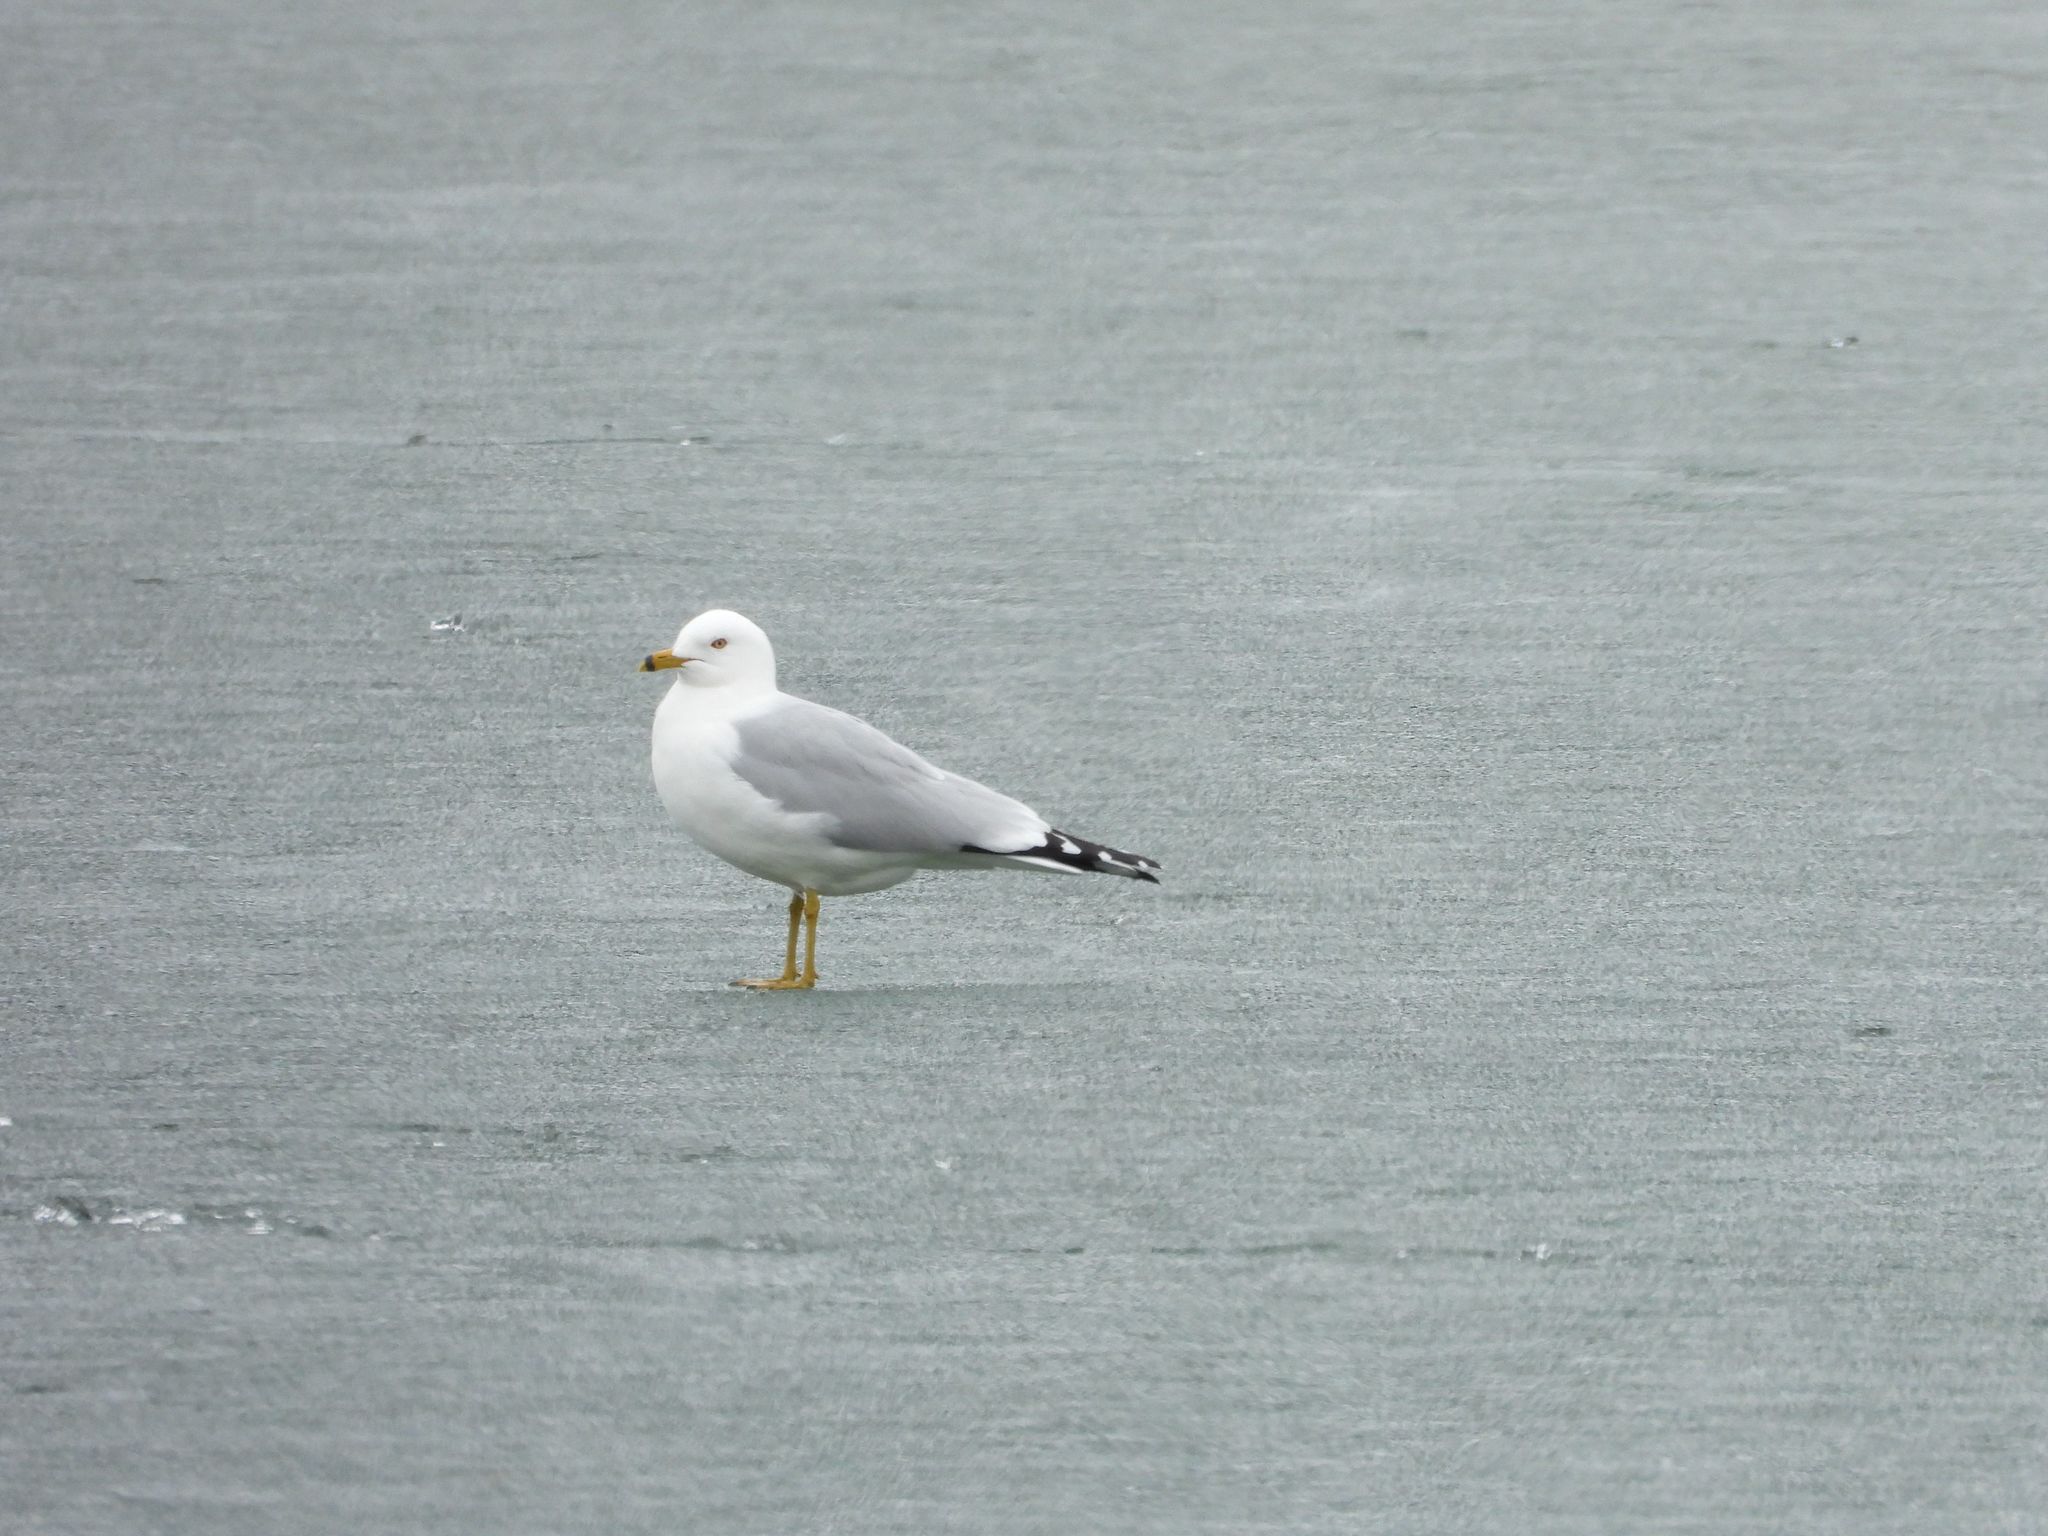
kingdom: Animalia
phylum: Chordata
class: Aves
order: Charadriiformes
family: Laridae
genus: Larus
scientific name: Larus delawarensis
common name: Ring-billed gull
